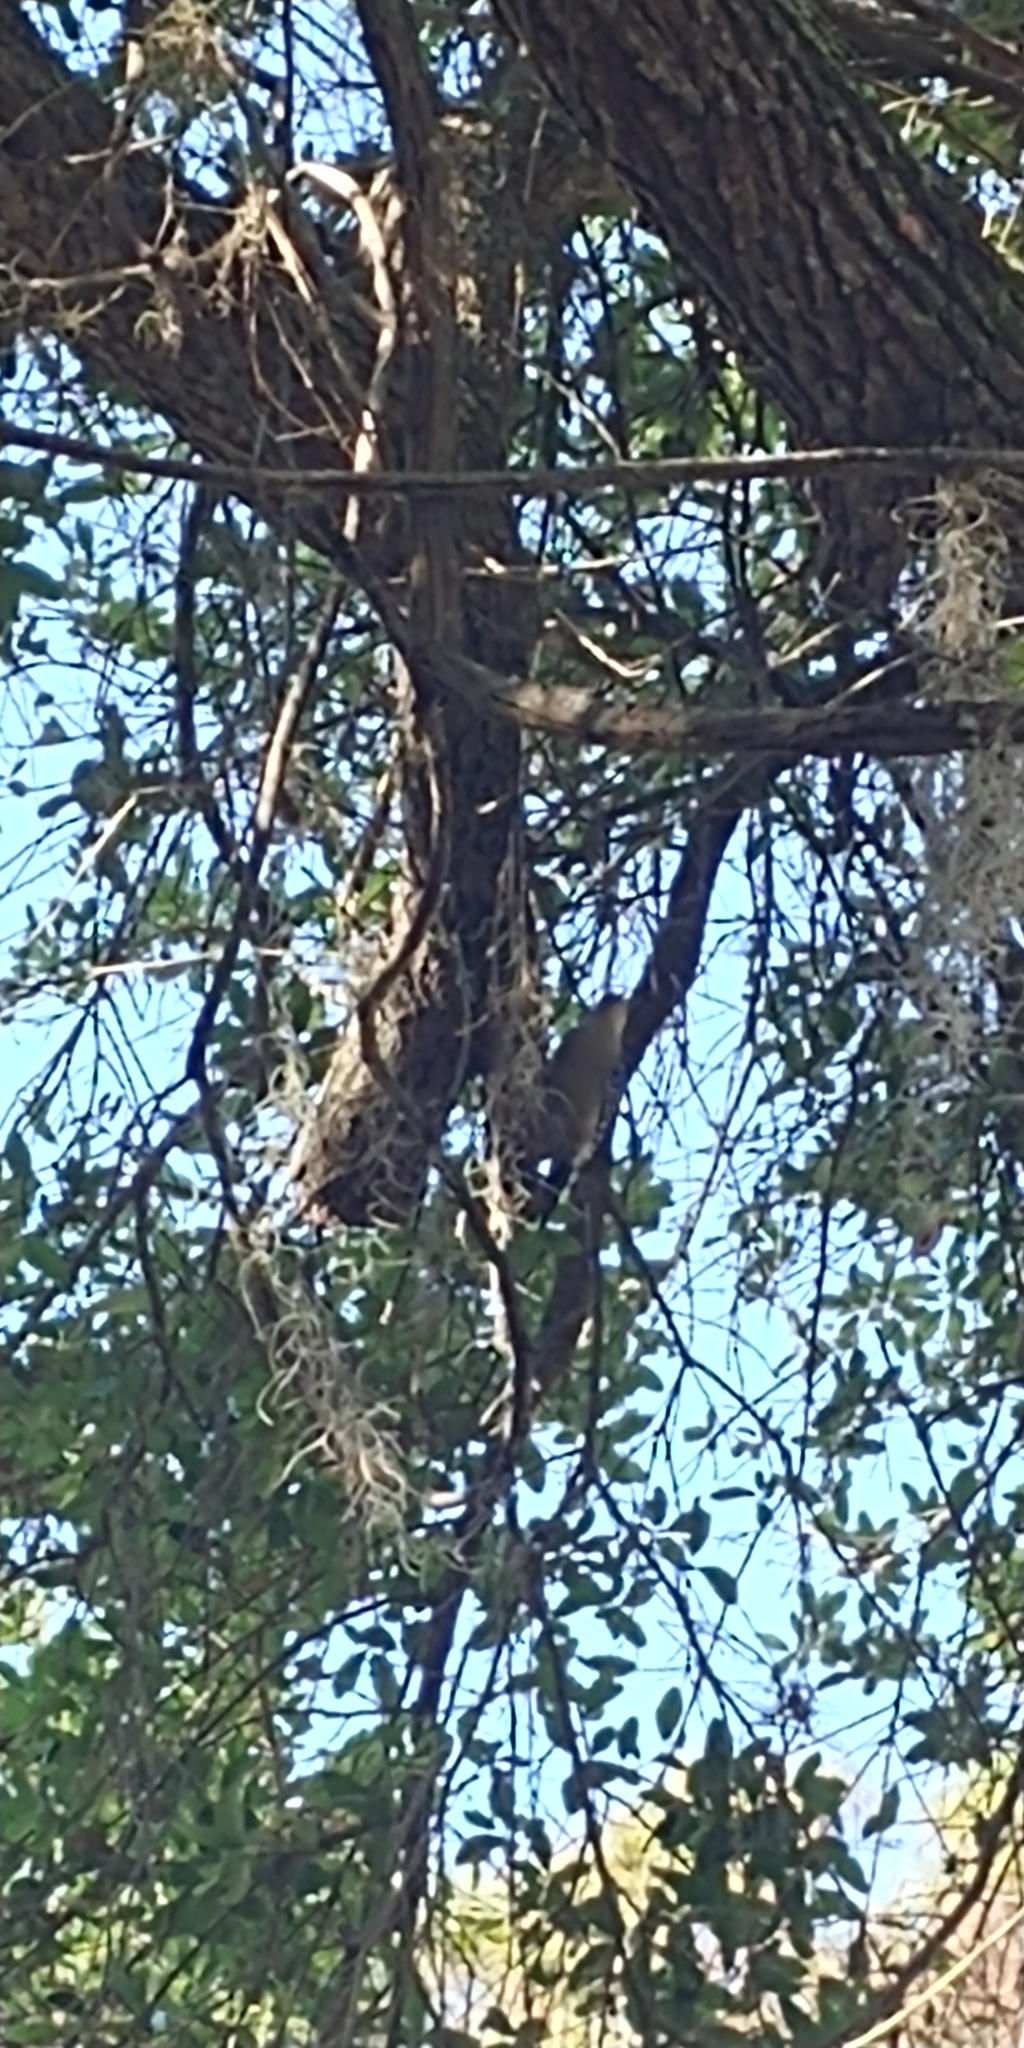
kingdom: Animalia
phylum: Chordata
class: Aves
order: Piciformes
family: Picidae
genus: Melanerpes
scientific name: Melanerpes carolinus
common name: Red-bellied woodpecker
